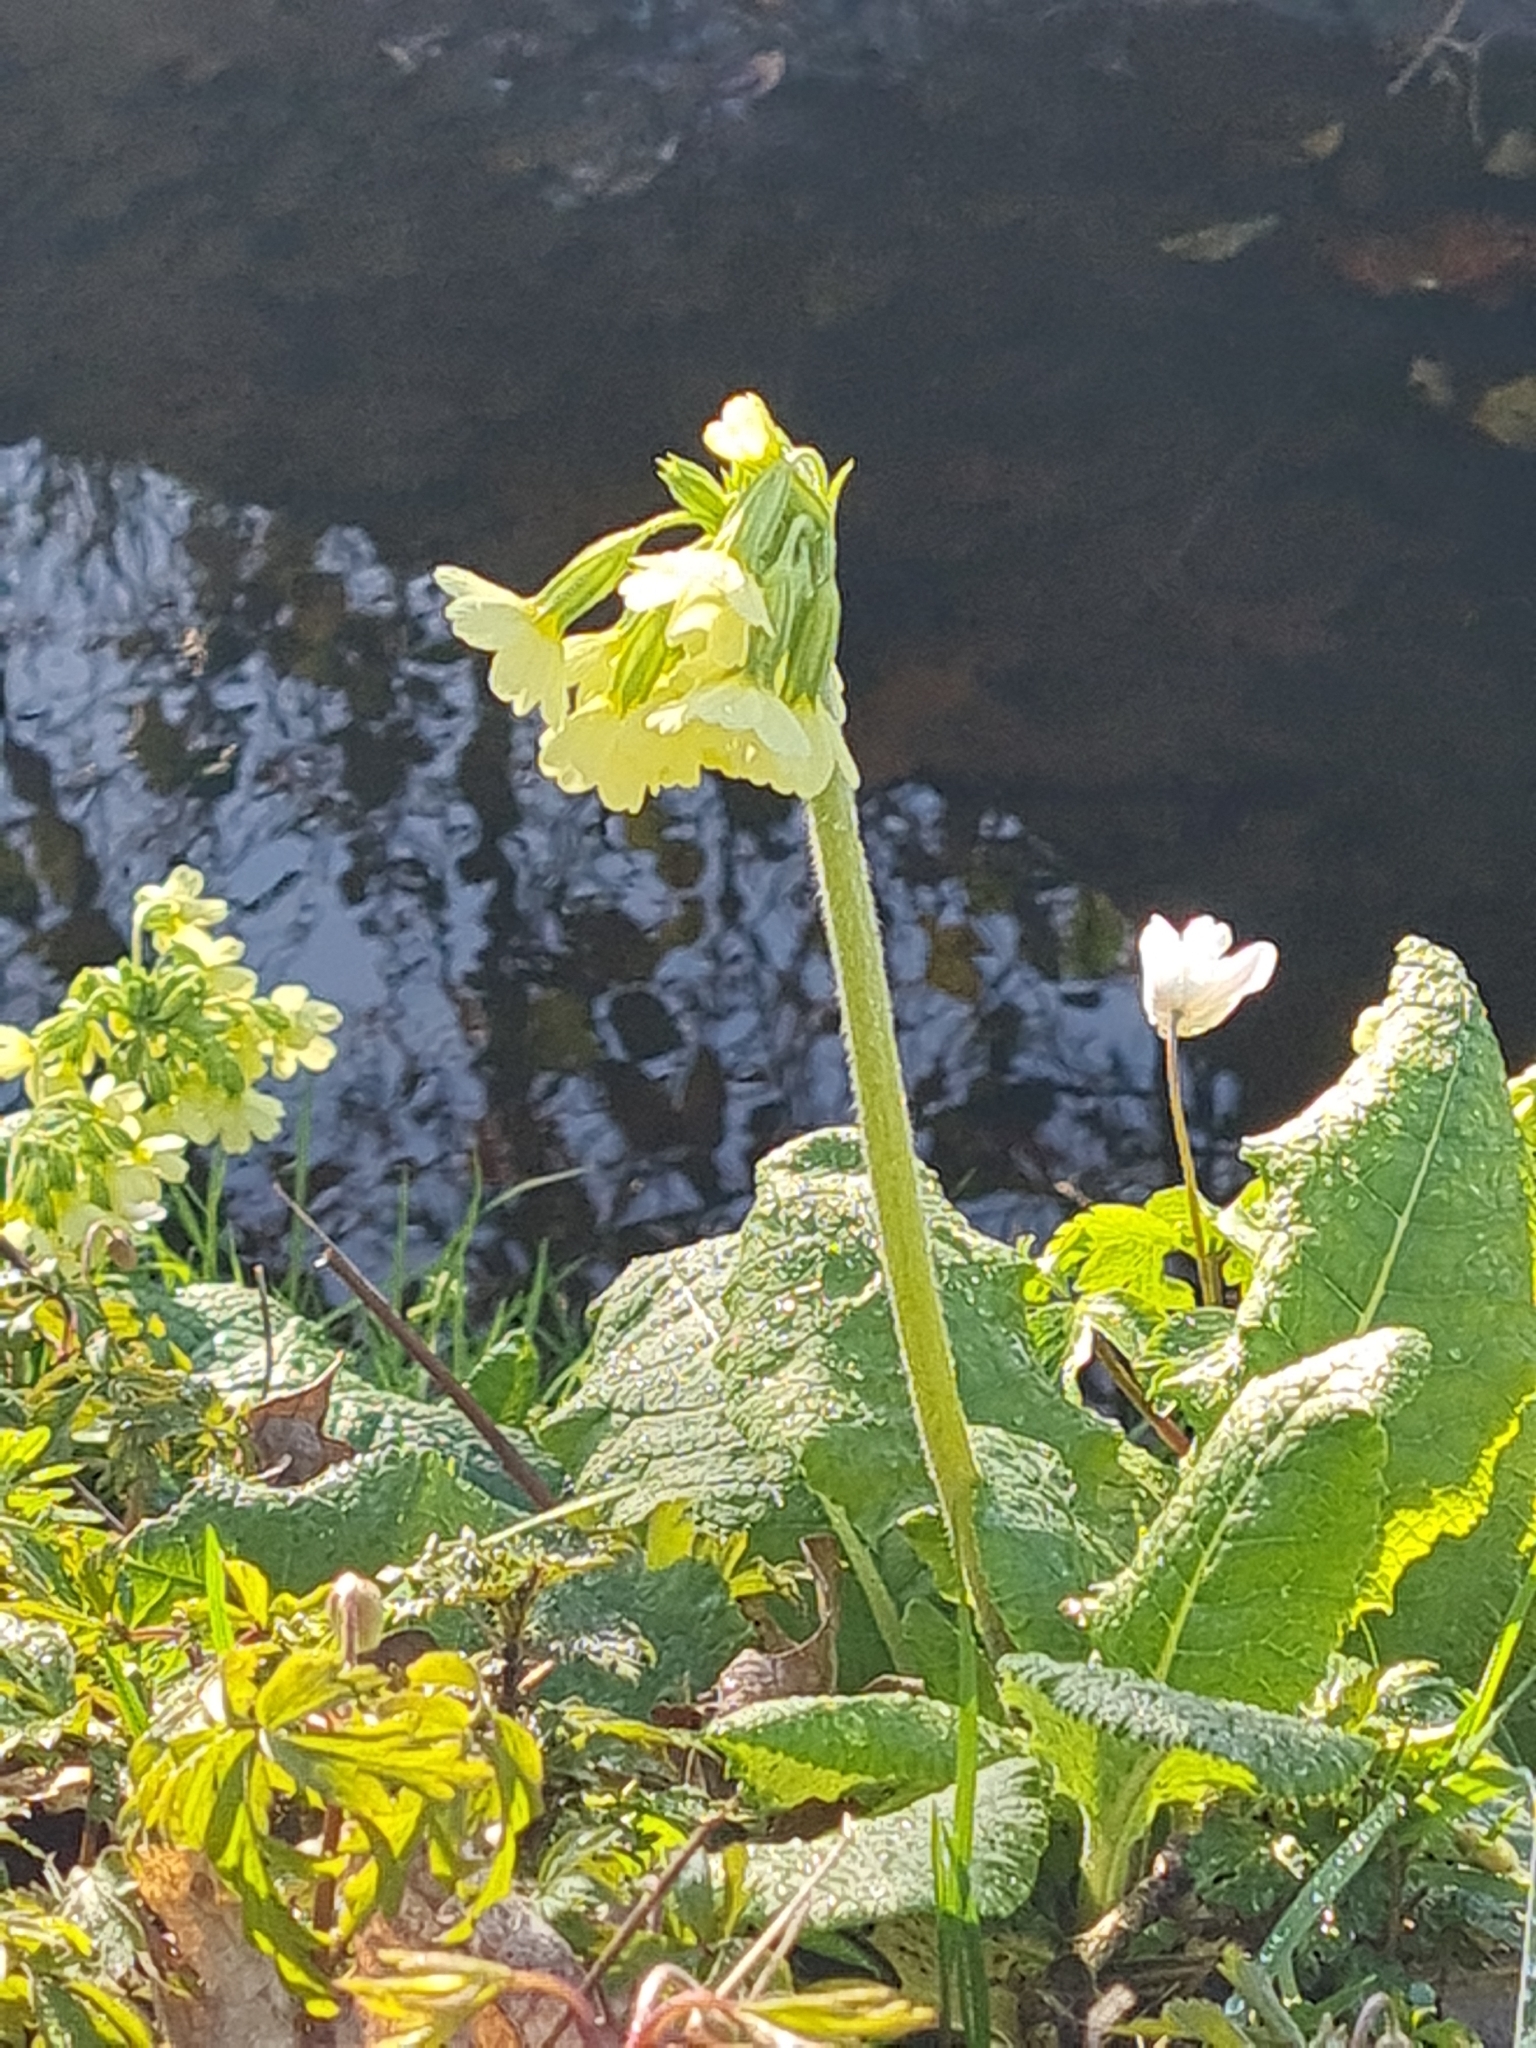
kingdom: Plantae
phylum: Tracheophyta
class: Magnoliopsida
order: Ericales
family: Primulaceae
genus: Primula
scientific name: Primula elatior
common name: Oxlip
